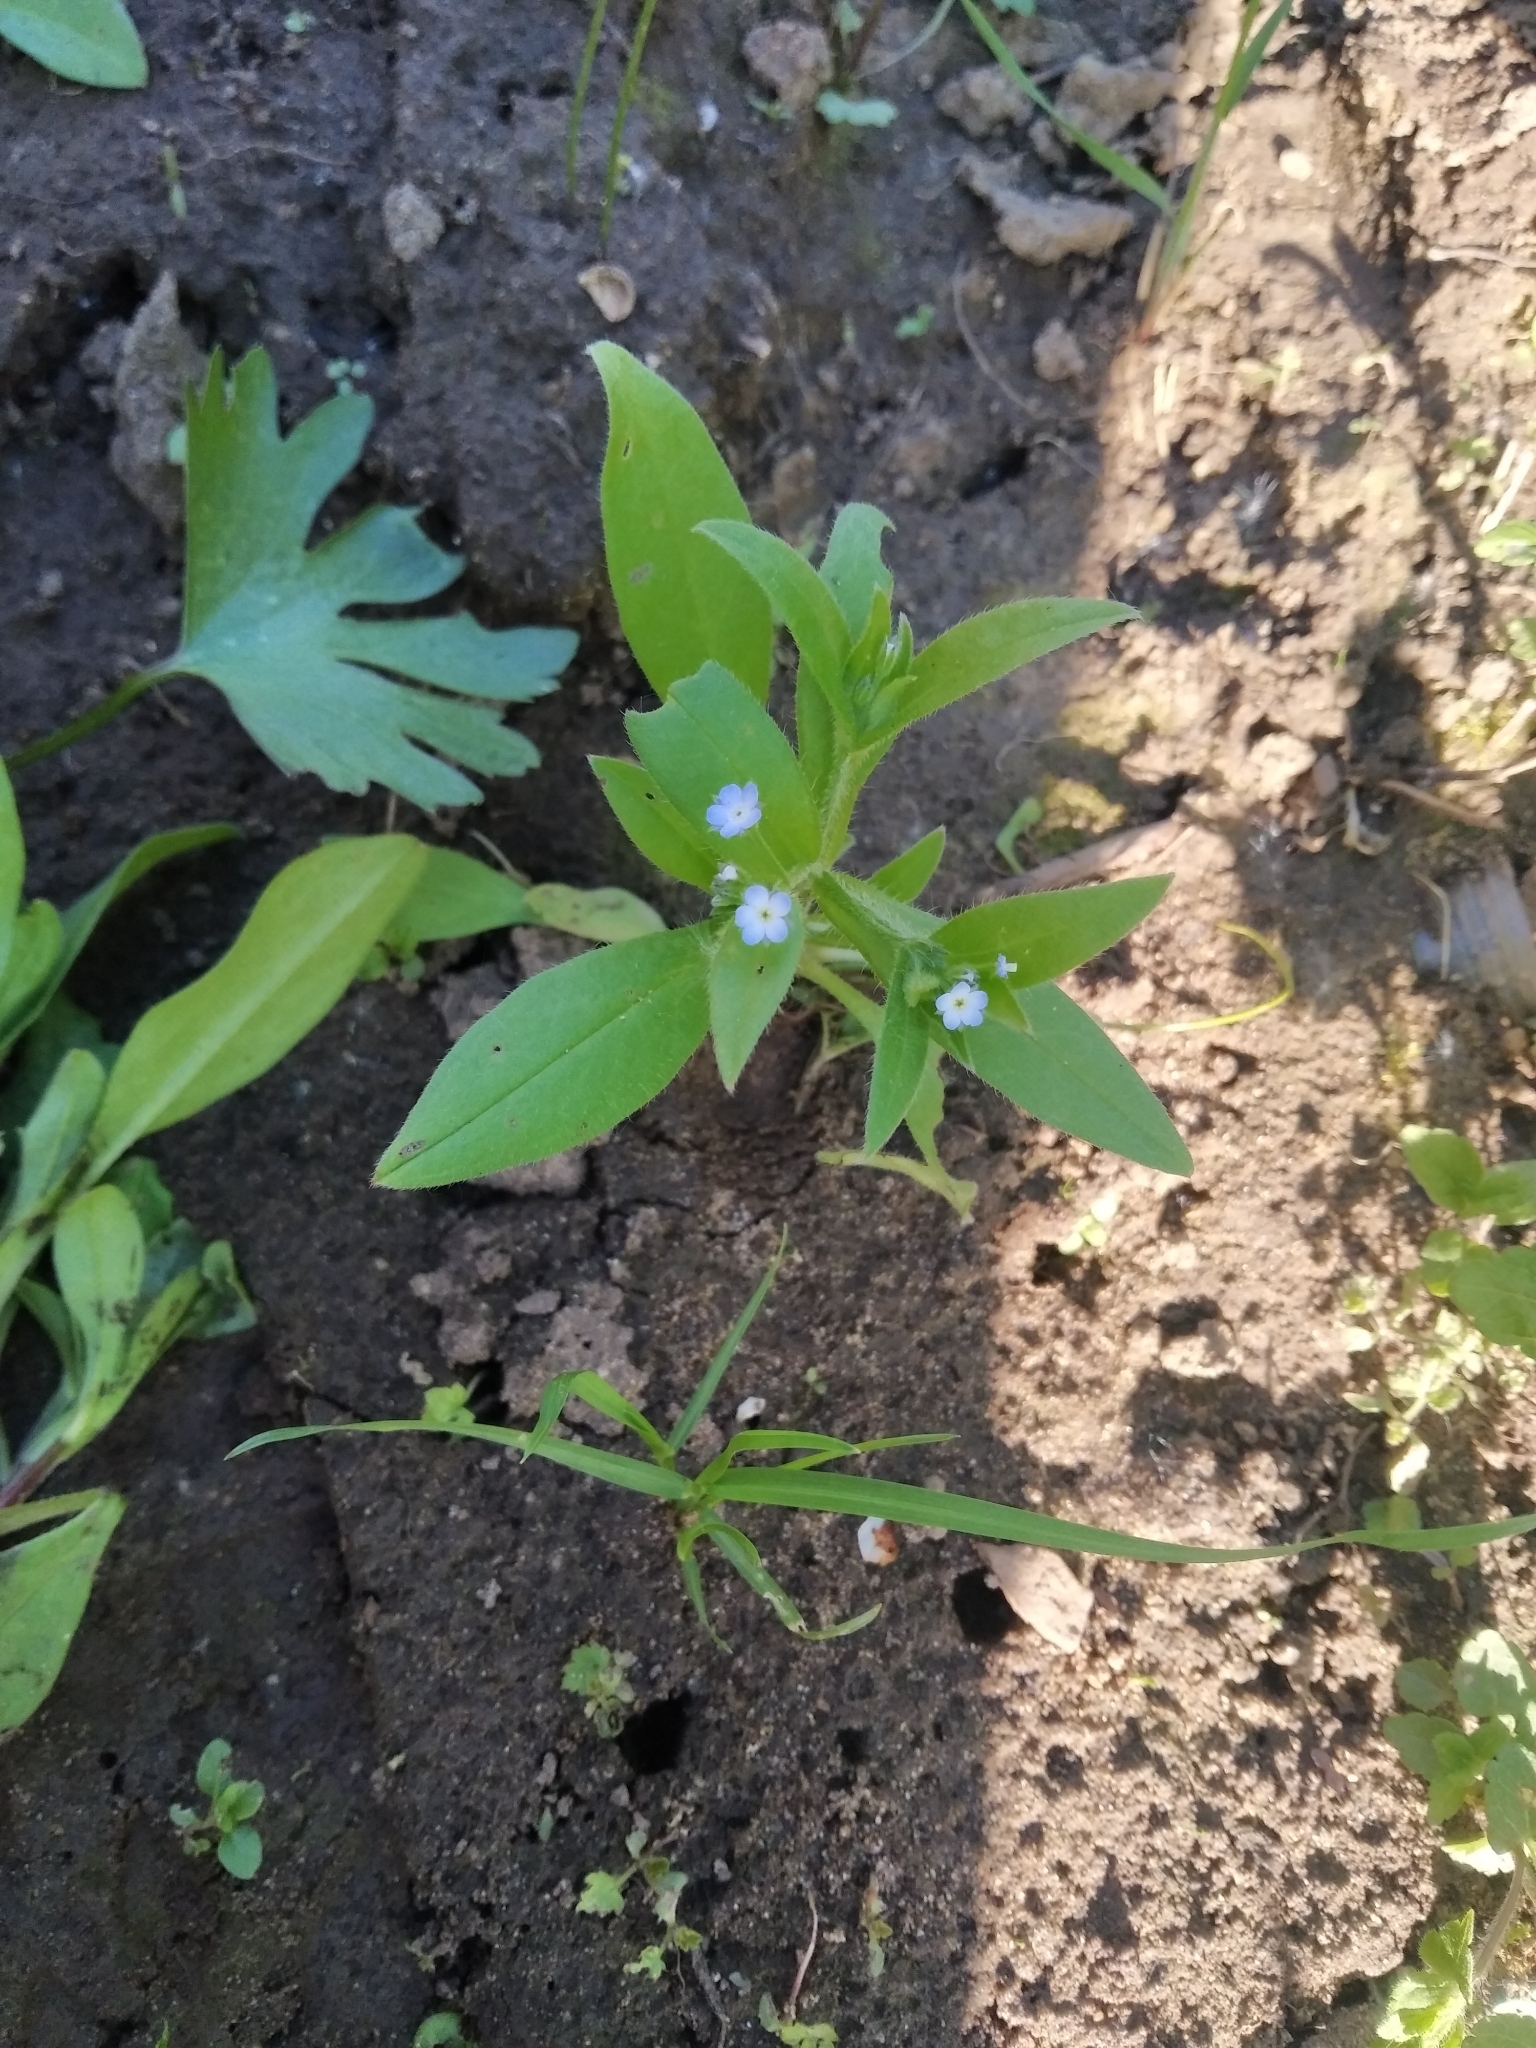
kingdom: Plantae
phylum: Tracheophyta
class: Magnoliopsida
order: Boraginales
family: Boraginaceae
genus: Myosotis
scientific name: Myosotis sparsiflora
